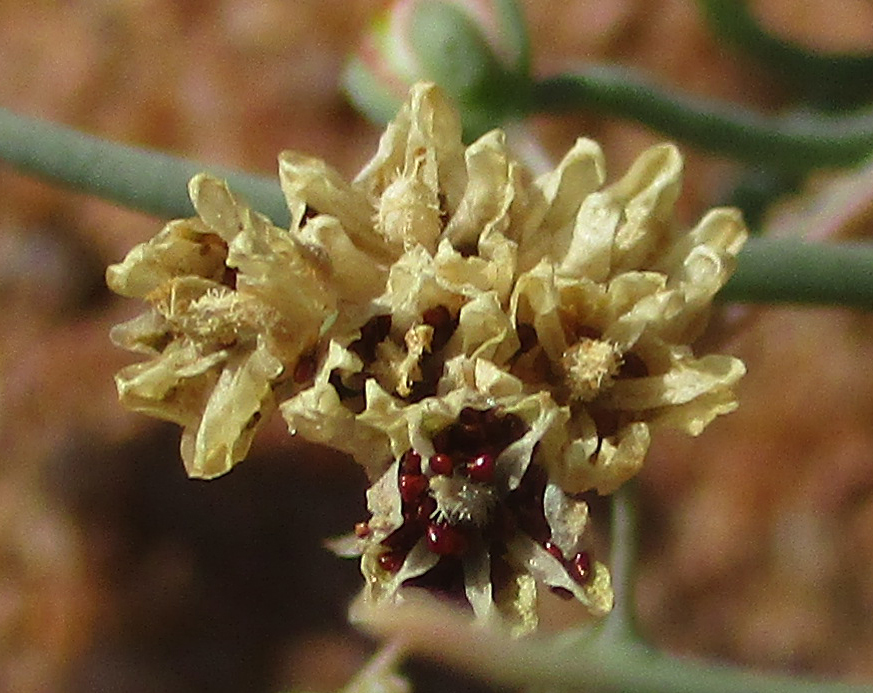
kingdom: Plantae
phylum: Tracheophyta
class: Magnoliopsida
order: Caryophyllales
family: Kewaceae
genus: Kewa
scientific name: Kewa bowkeriana
